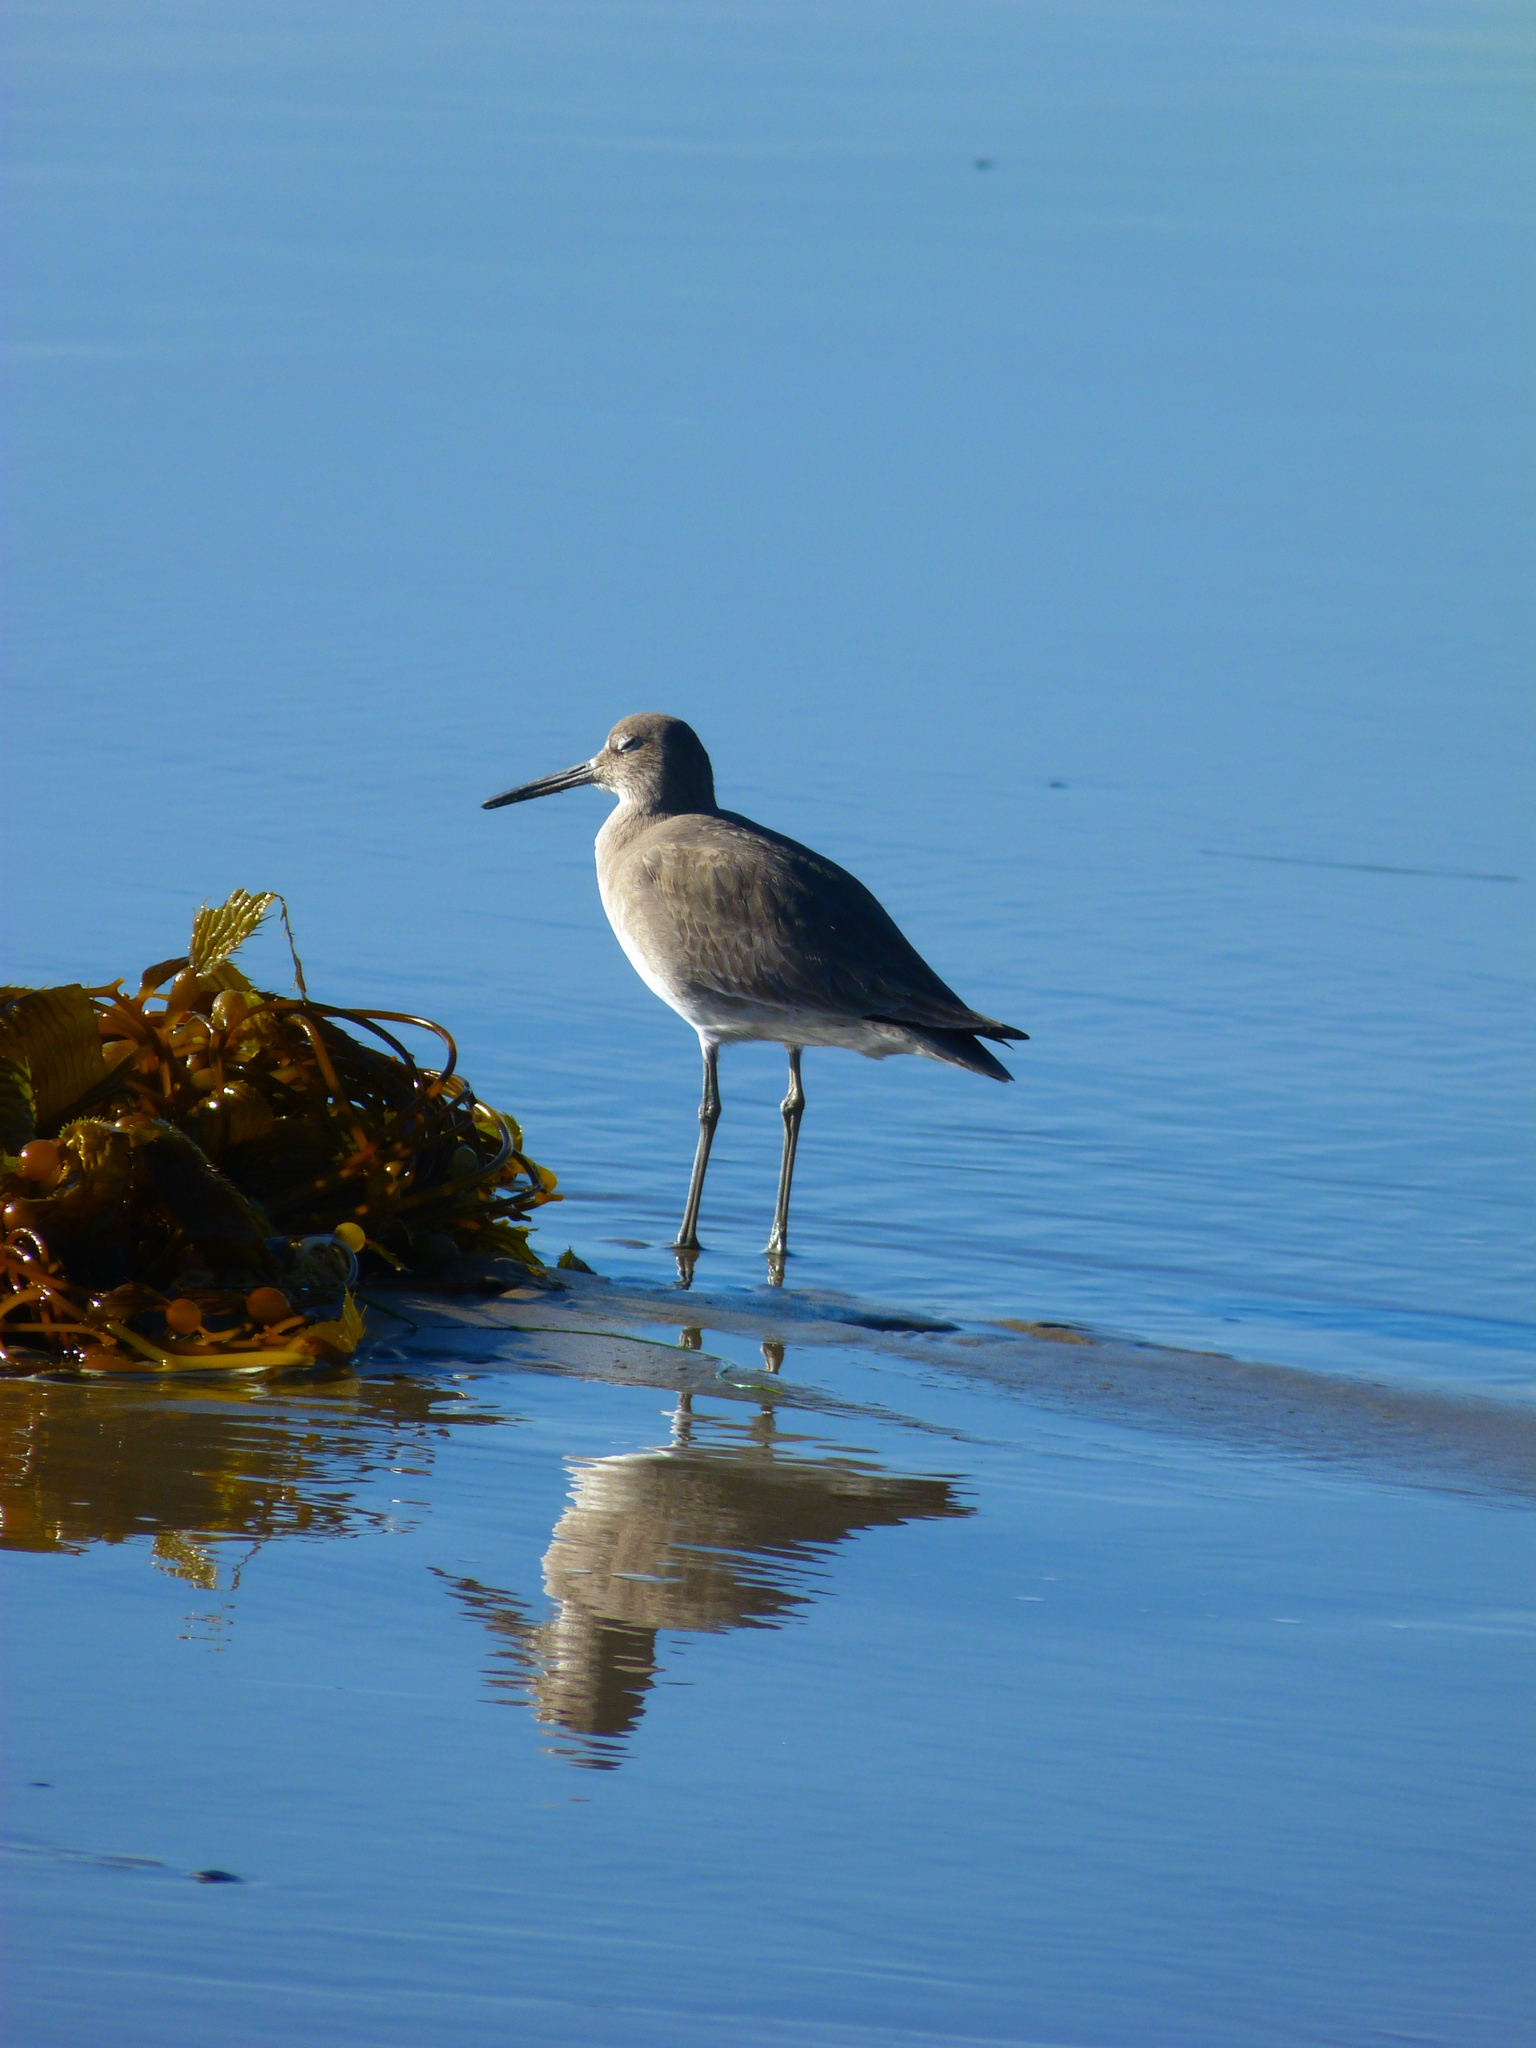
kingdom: Animalia
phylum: Chordata
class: Aves
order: Charadriiformes
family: Scolopacidae
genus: Tringa
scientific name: Tringa semipalmata
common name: Willet
